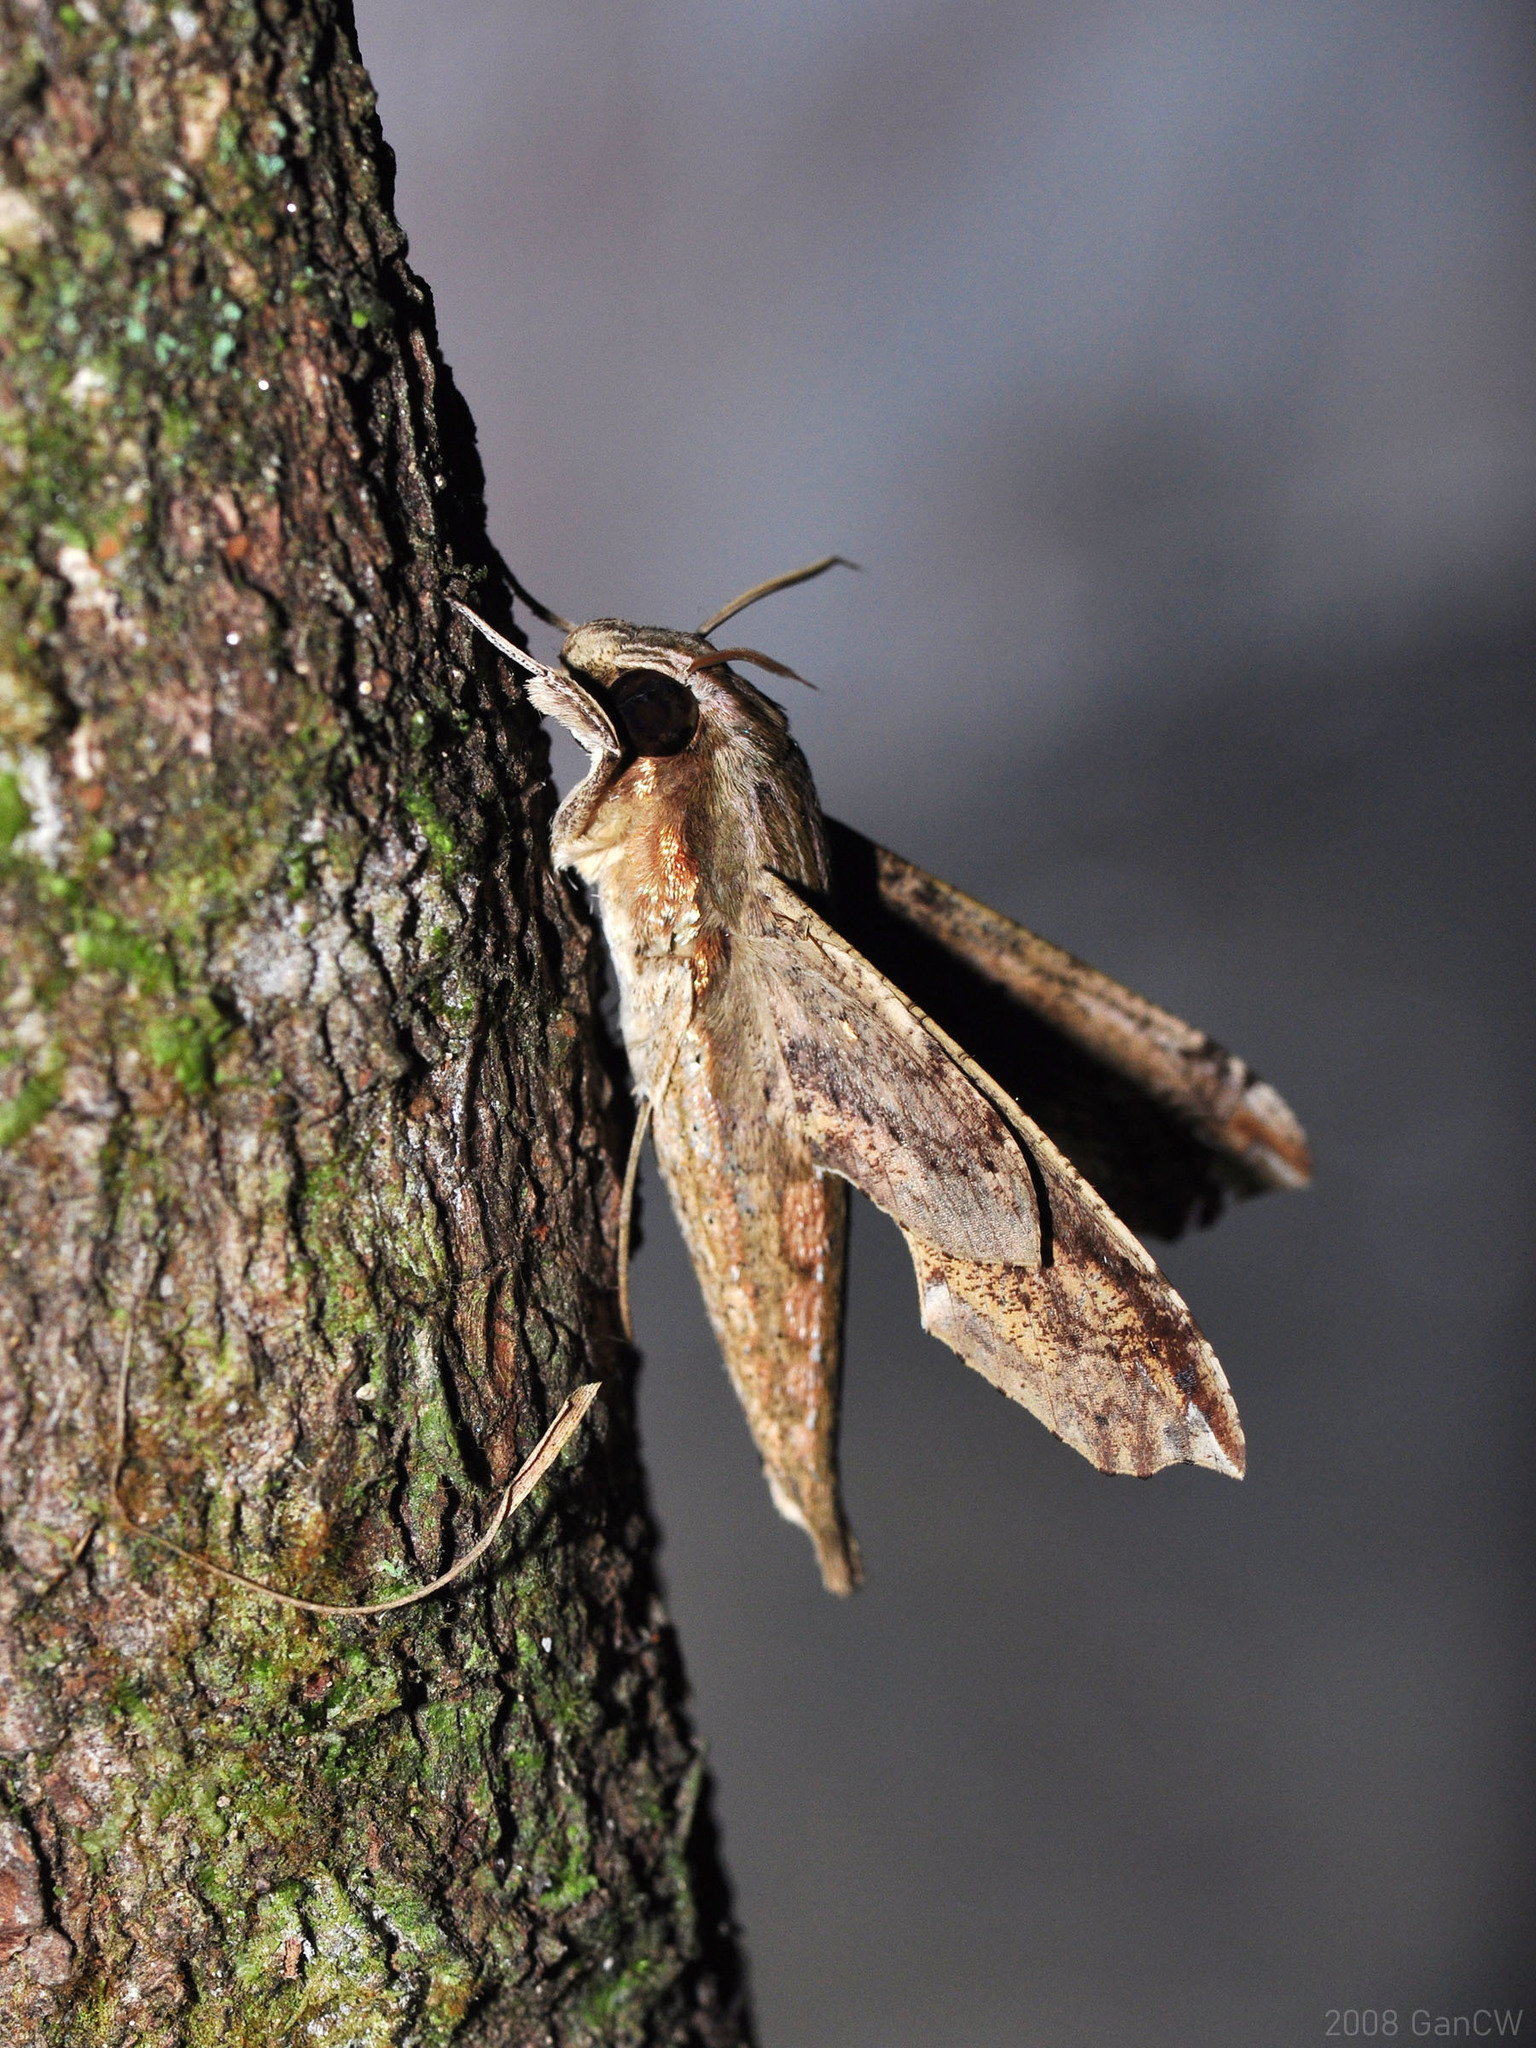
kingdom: Animalia
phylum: Arthropoda
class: Insecta
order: Lepidoptera
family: Sphingidae
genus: Eupanacra
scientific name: Eupanacra regularis
